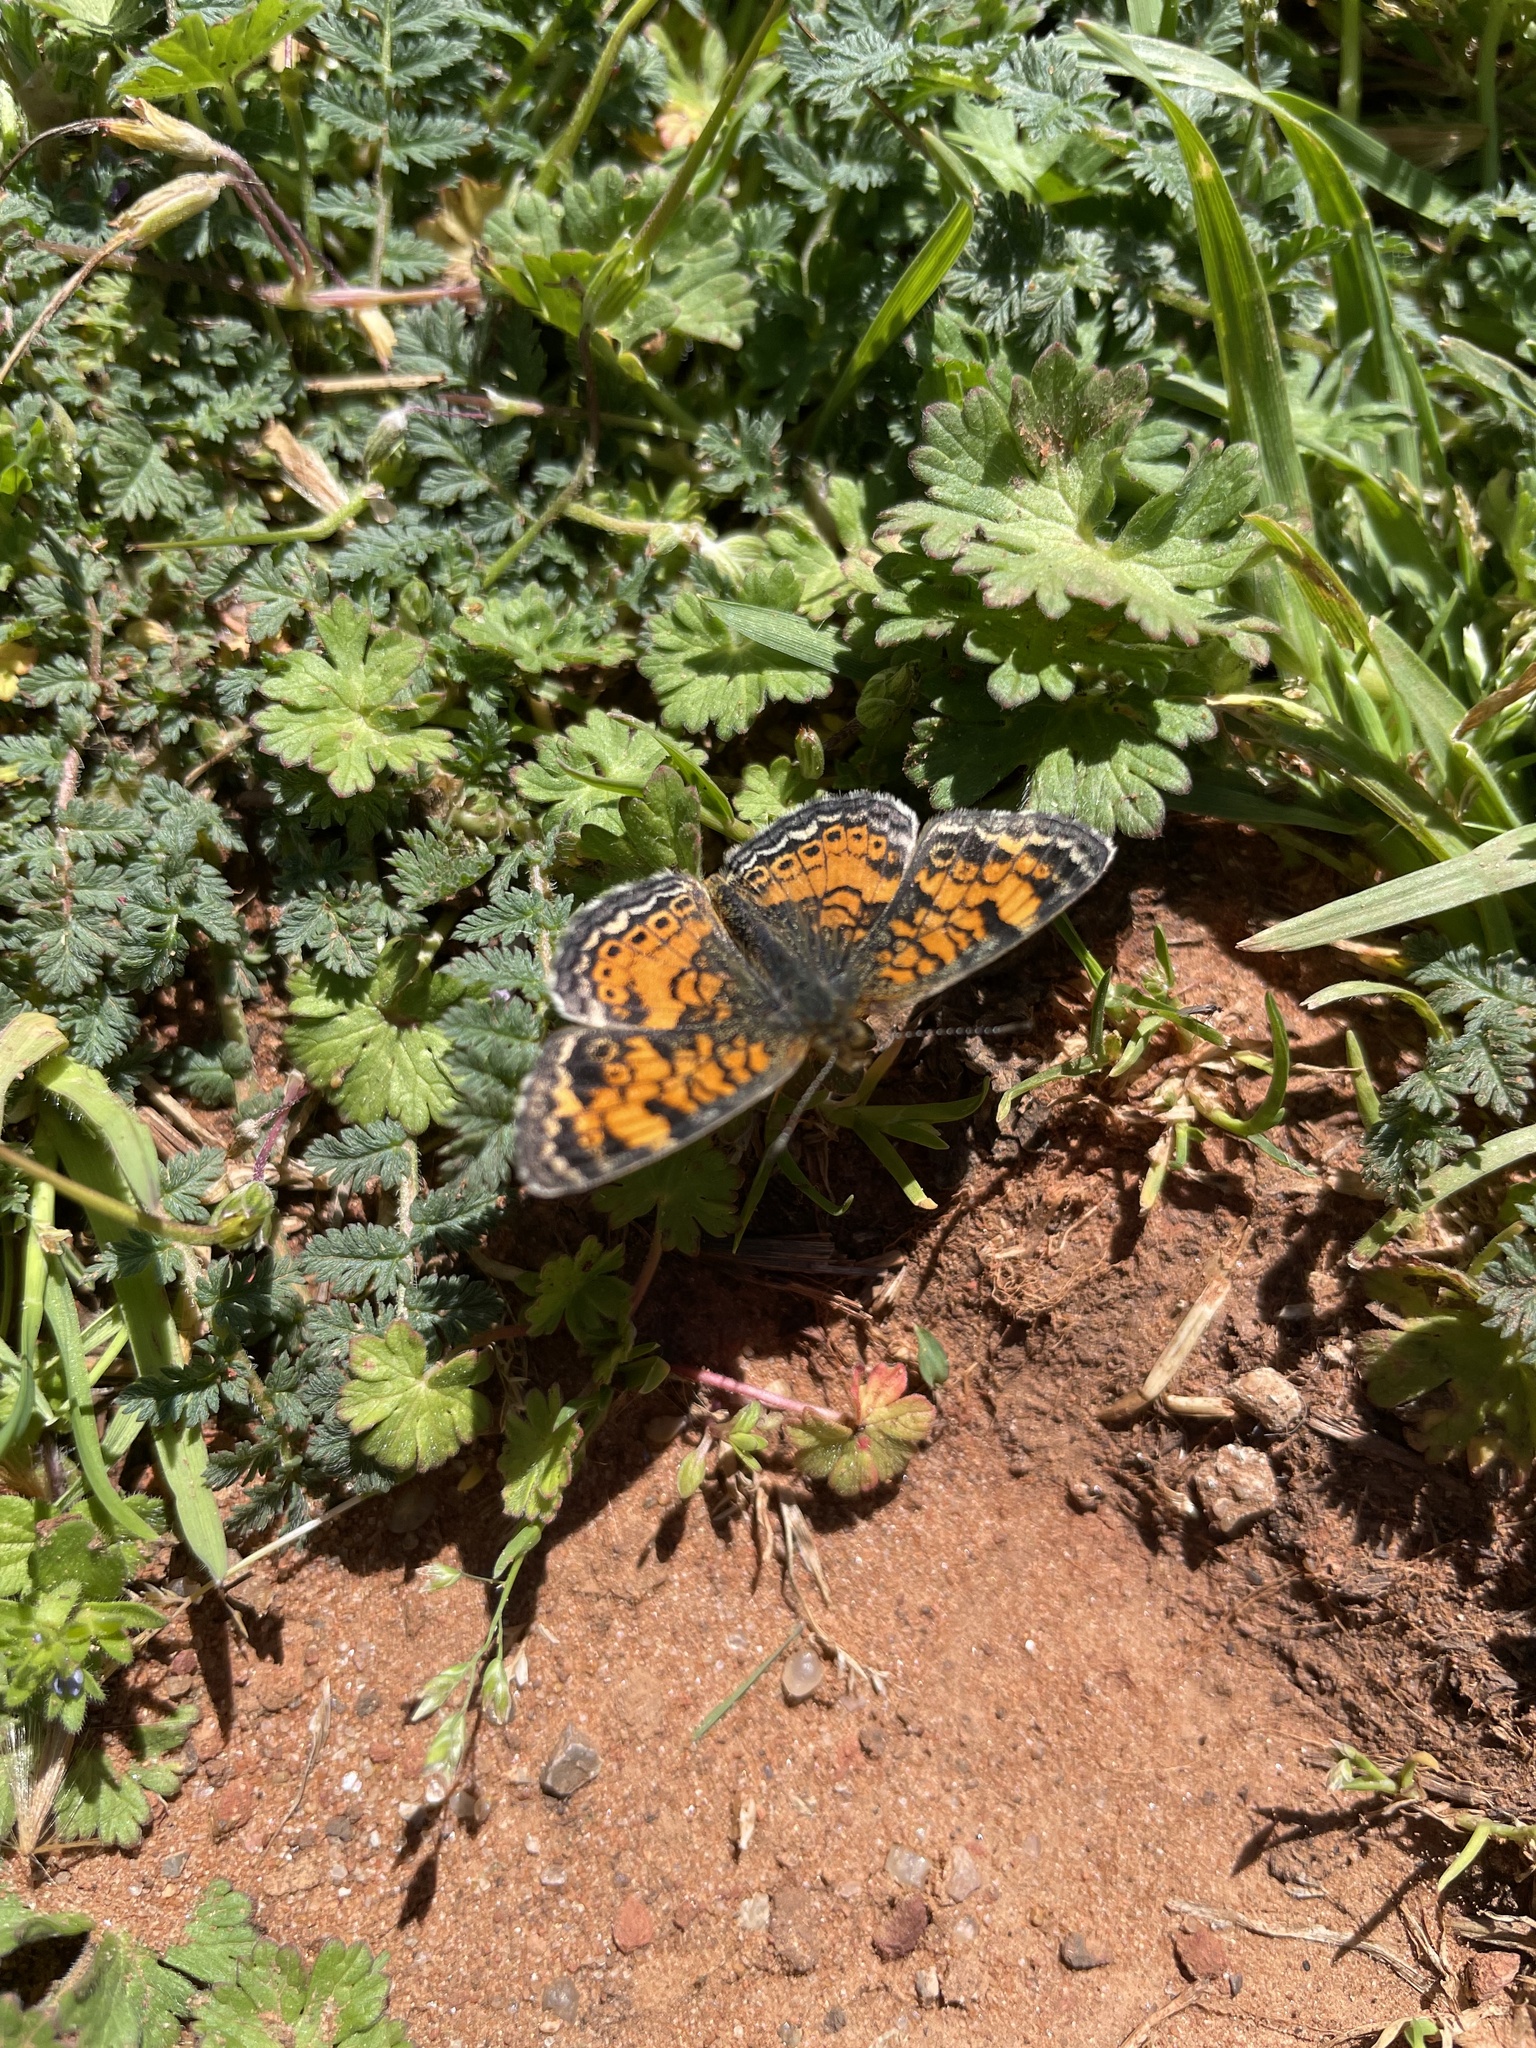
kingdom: Animalia
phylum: Arthropoda
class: Insecta
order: Lepidoptera
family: Nymphalidae
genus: Phyciodes
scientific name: Phyciodes tharos
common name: Pearl crescent
